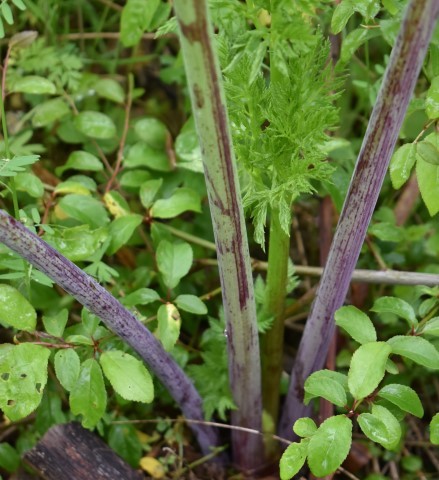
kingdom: Plantae
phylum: Tracheophyta
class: Magnoliopsida
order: Apiales
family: Apiaceae
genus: Conium
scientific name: Conium maculatum
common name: Hemlock
